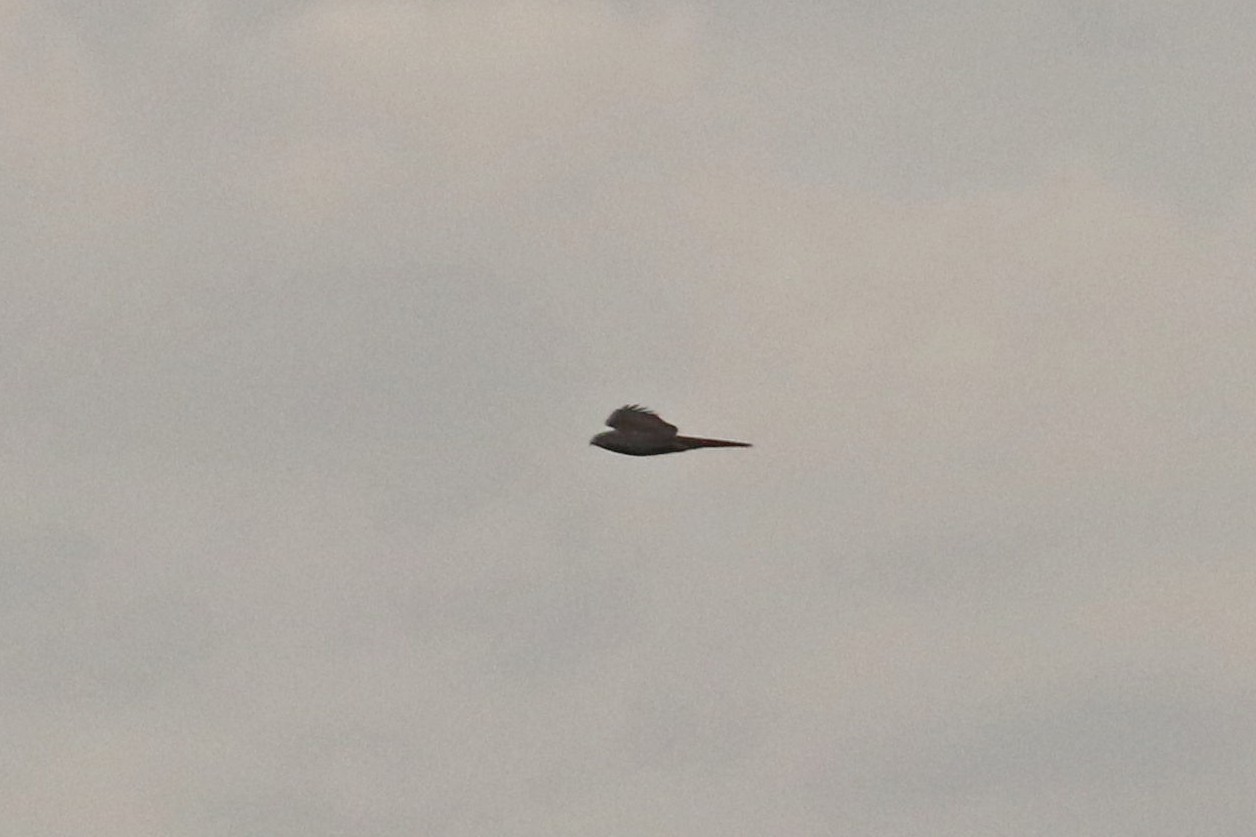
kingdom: Animalia
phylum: Chordata
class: Aves
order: Accipitriformes
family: Accipitridae
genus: Accipiter
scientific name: Accipiter nisus
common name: Eurasian sparrowhawk
